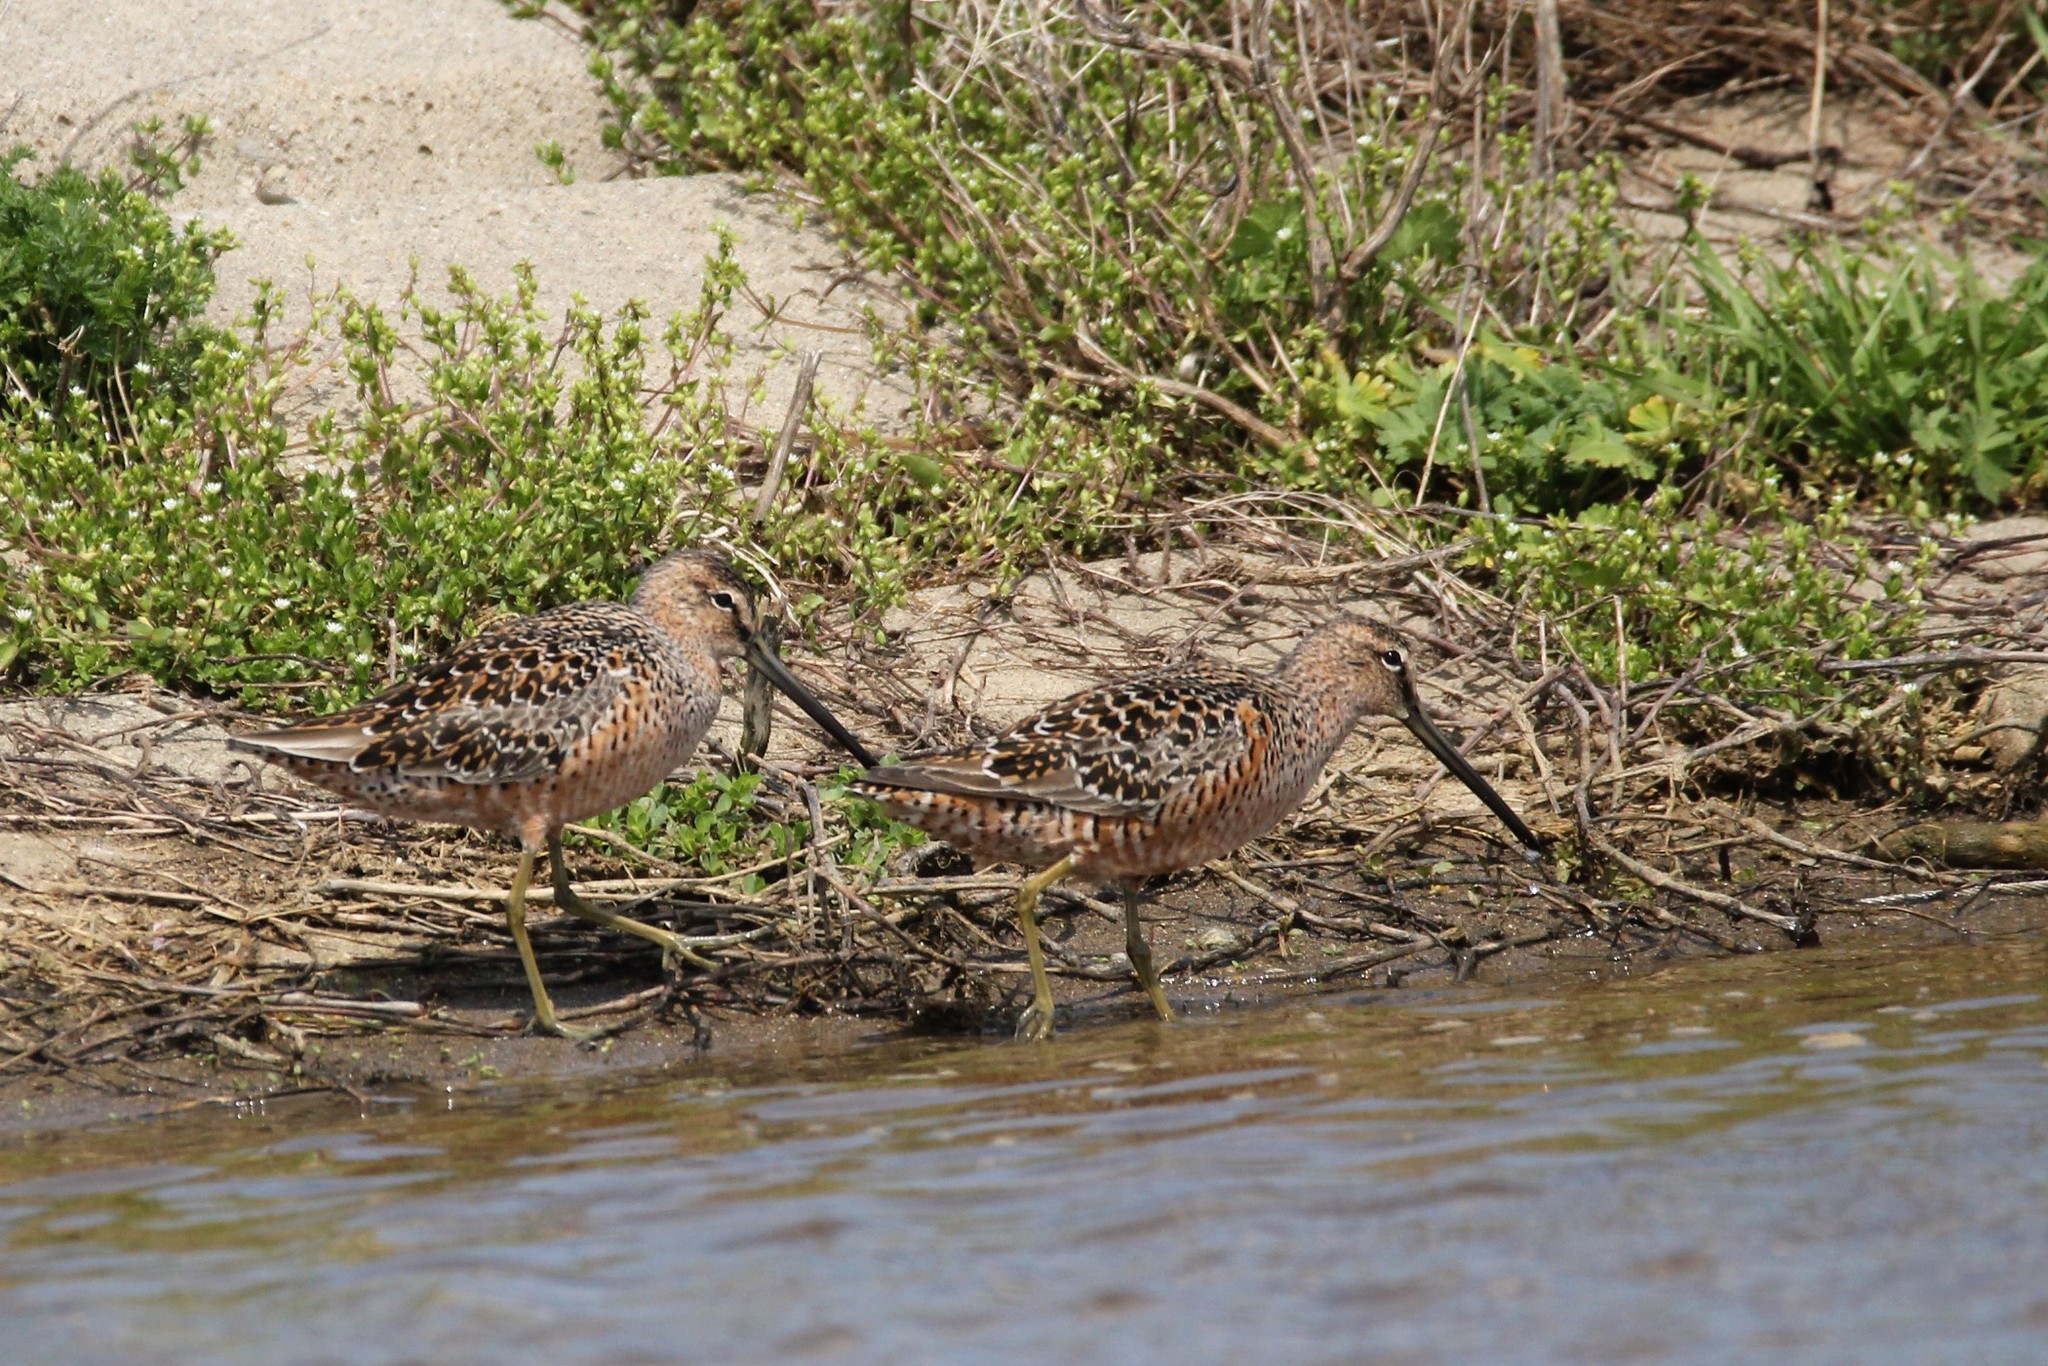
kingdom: Animalia
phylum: Chordata
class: Aves
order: Charadriiformes
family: Scolopacidae
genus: Limnodromus
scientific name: Limnodromus scolopaceus
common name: Long-billed dowitcher
